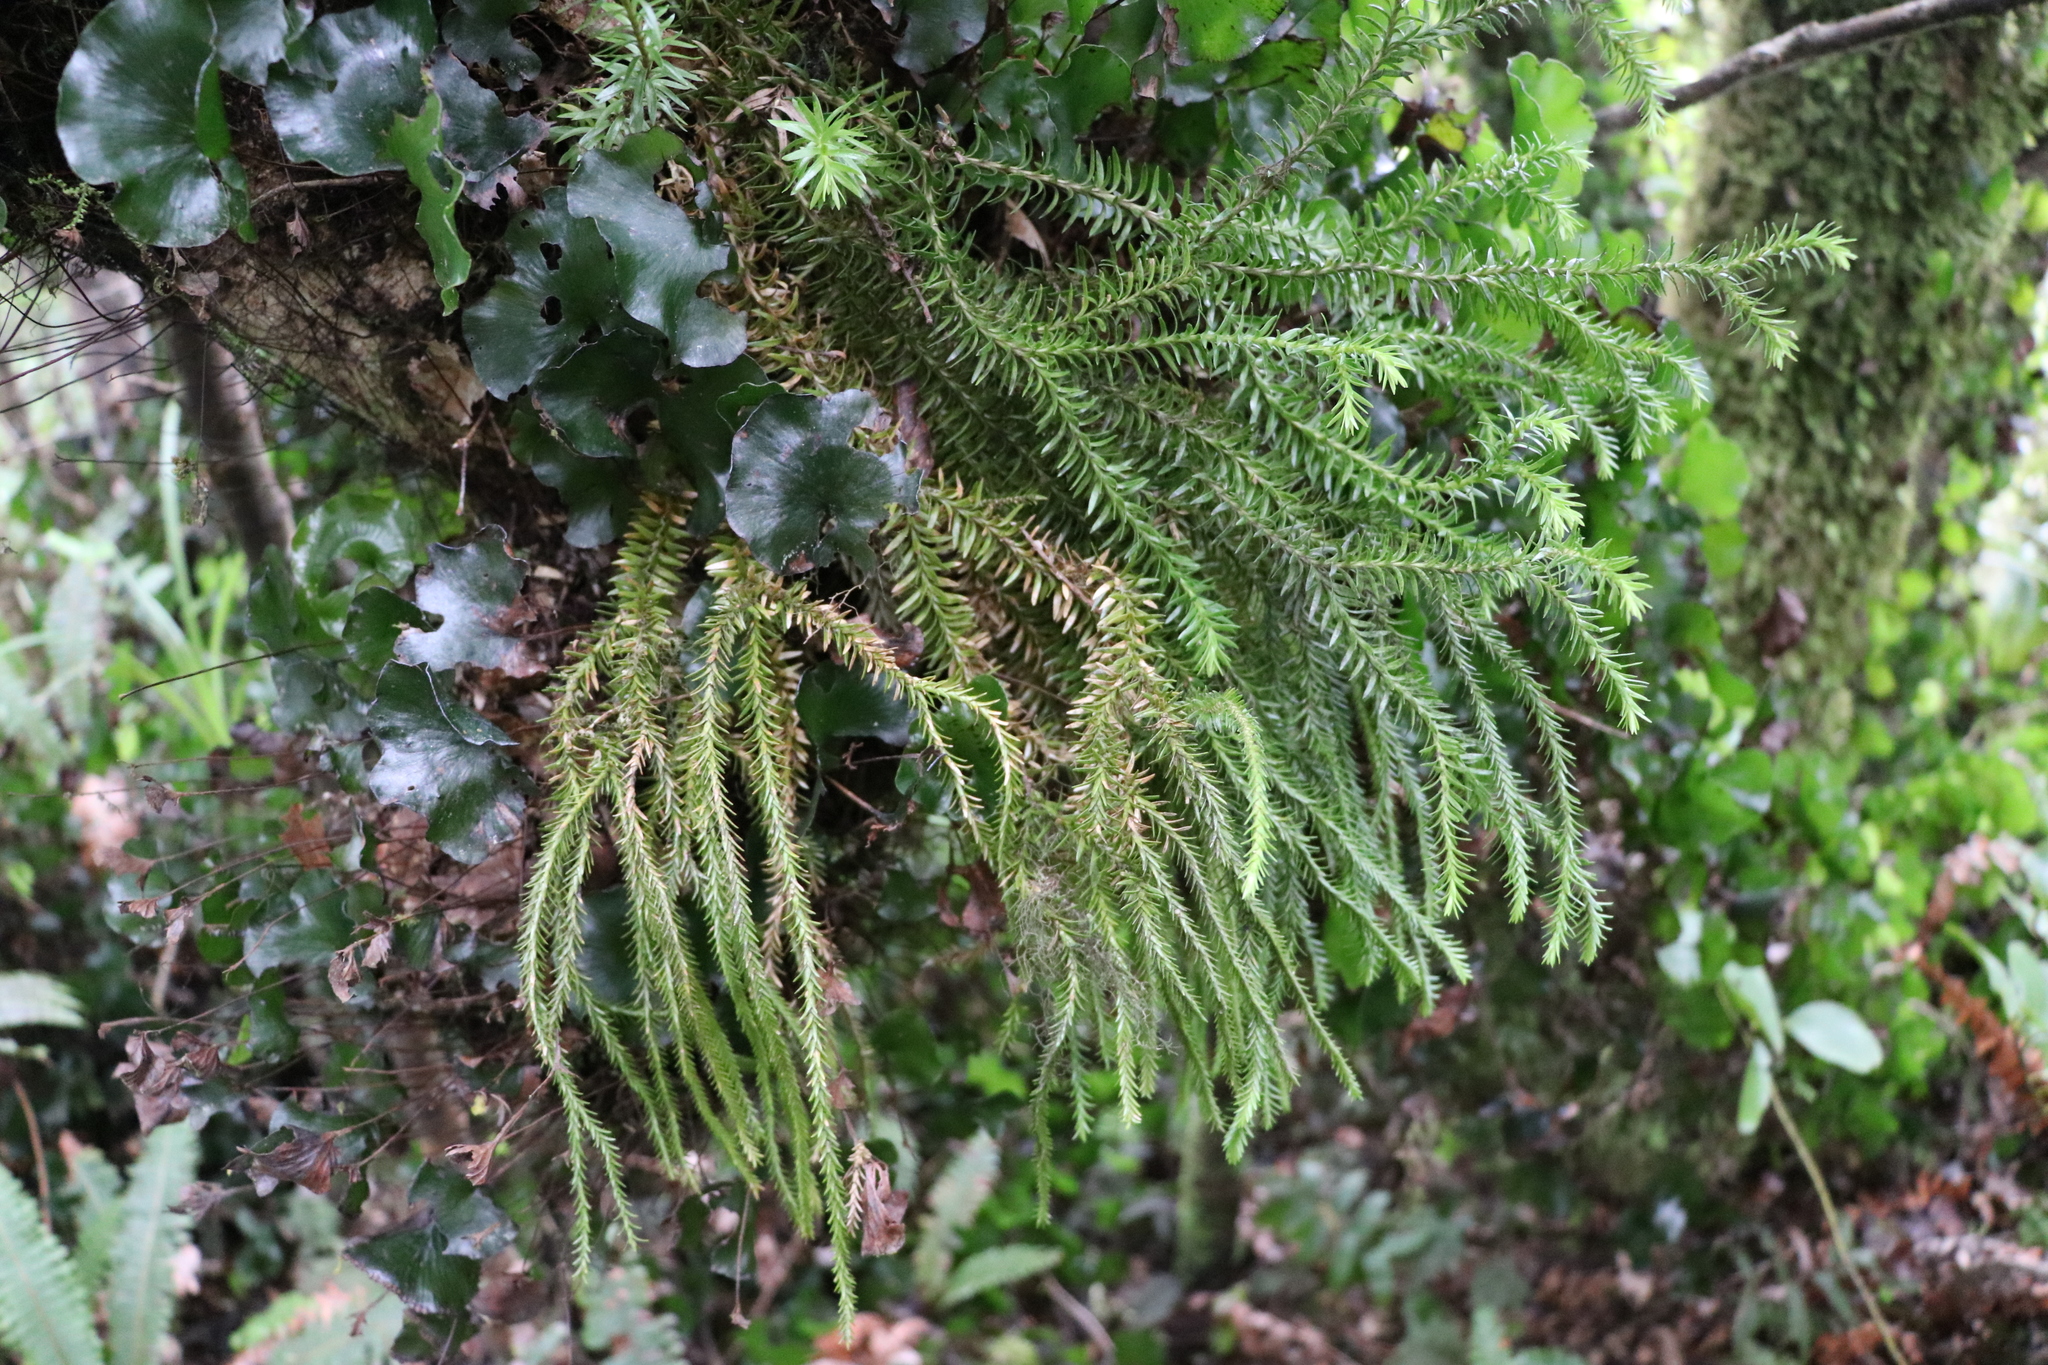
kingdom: Plantae
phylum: Tracheophyta
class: Lycopodiopsida
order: Lycopodiales
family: Lycopodiaceae
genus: Phlegmariurus
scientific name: Phlegmariurus varius
